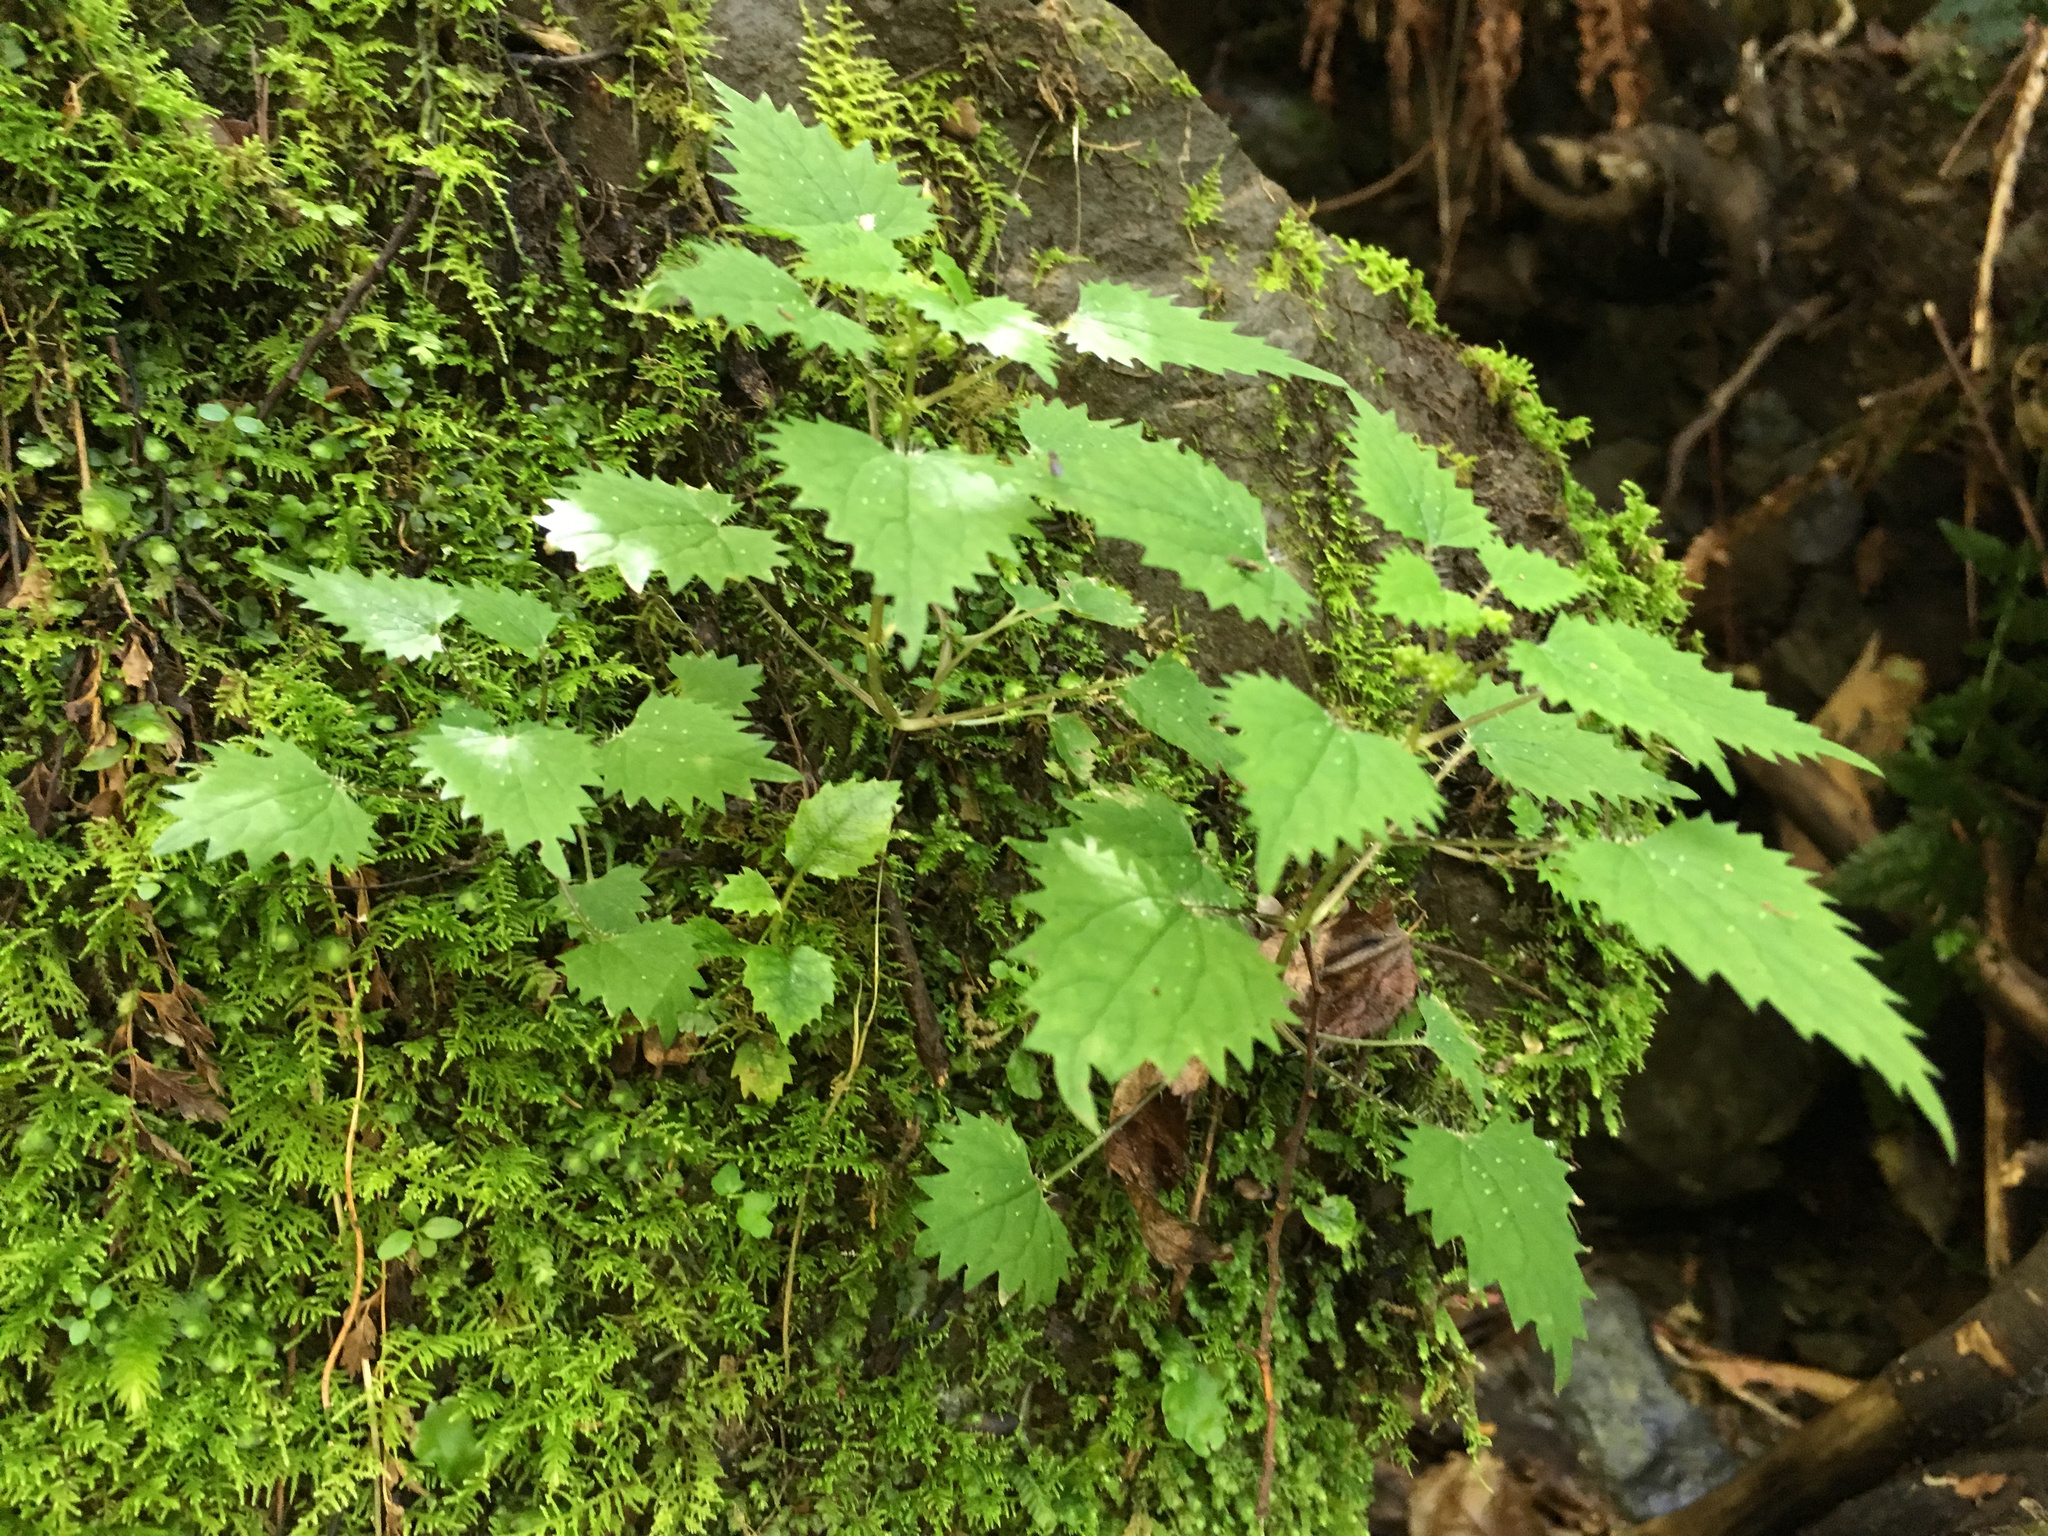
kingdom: Plantae
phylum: Tracheophyta
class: Magnoliopsida
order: Rosales
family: Urticaceae
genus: Urtica
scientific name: Urtica sykesii
